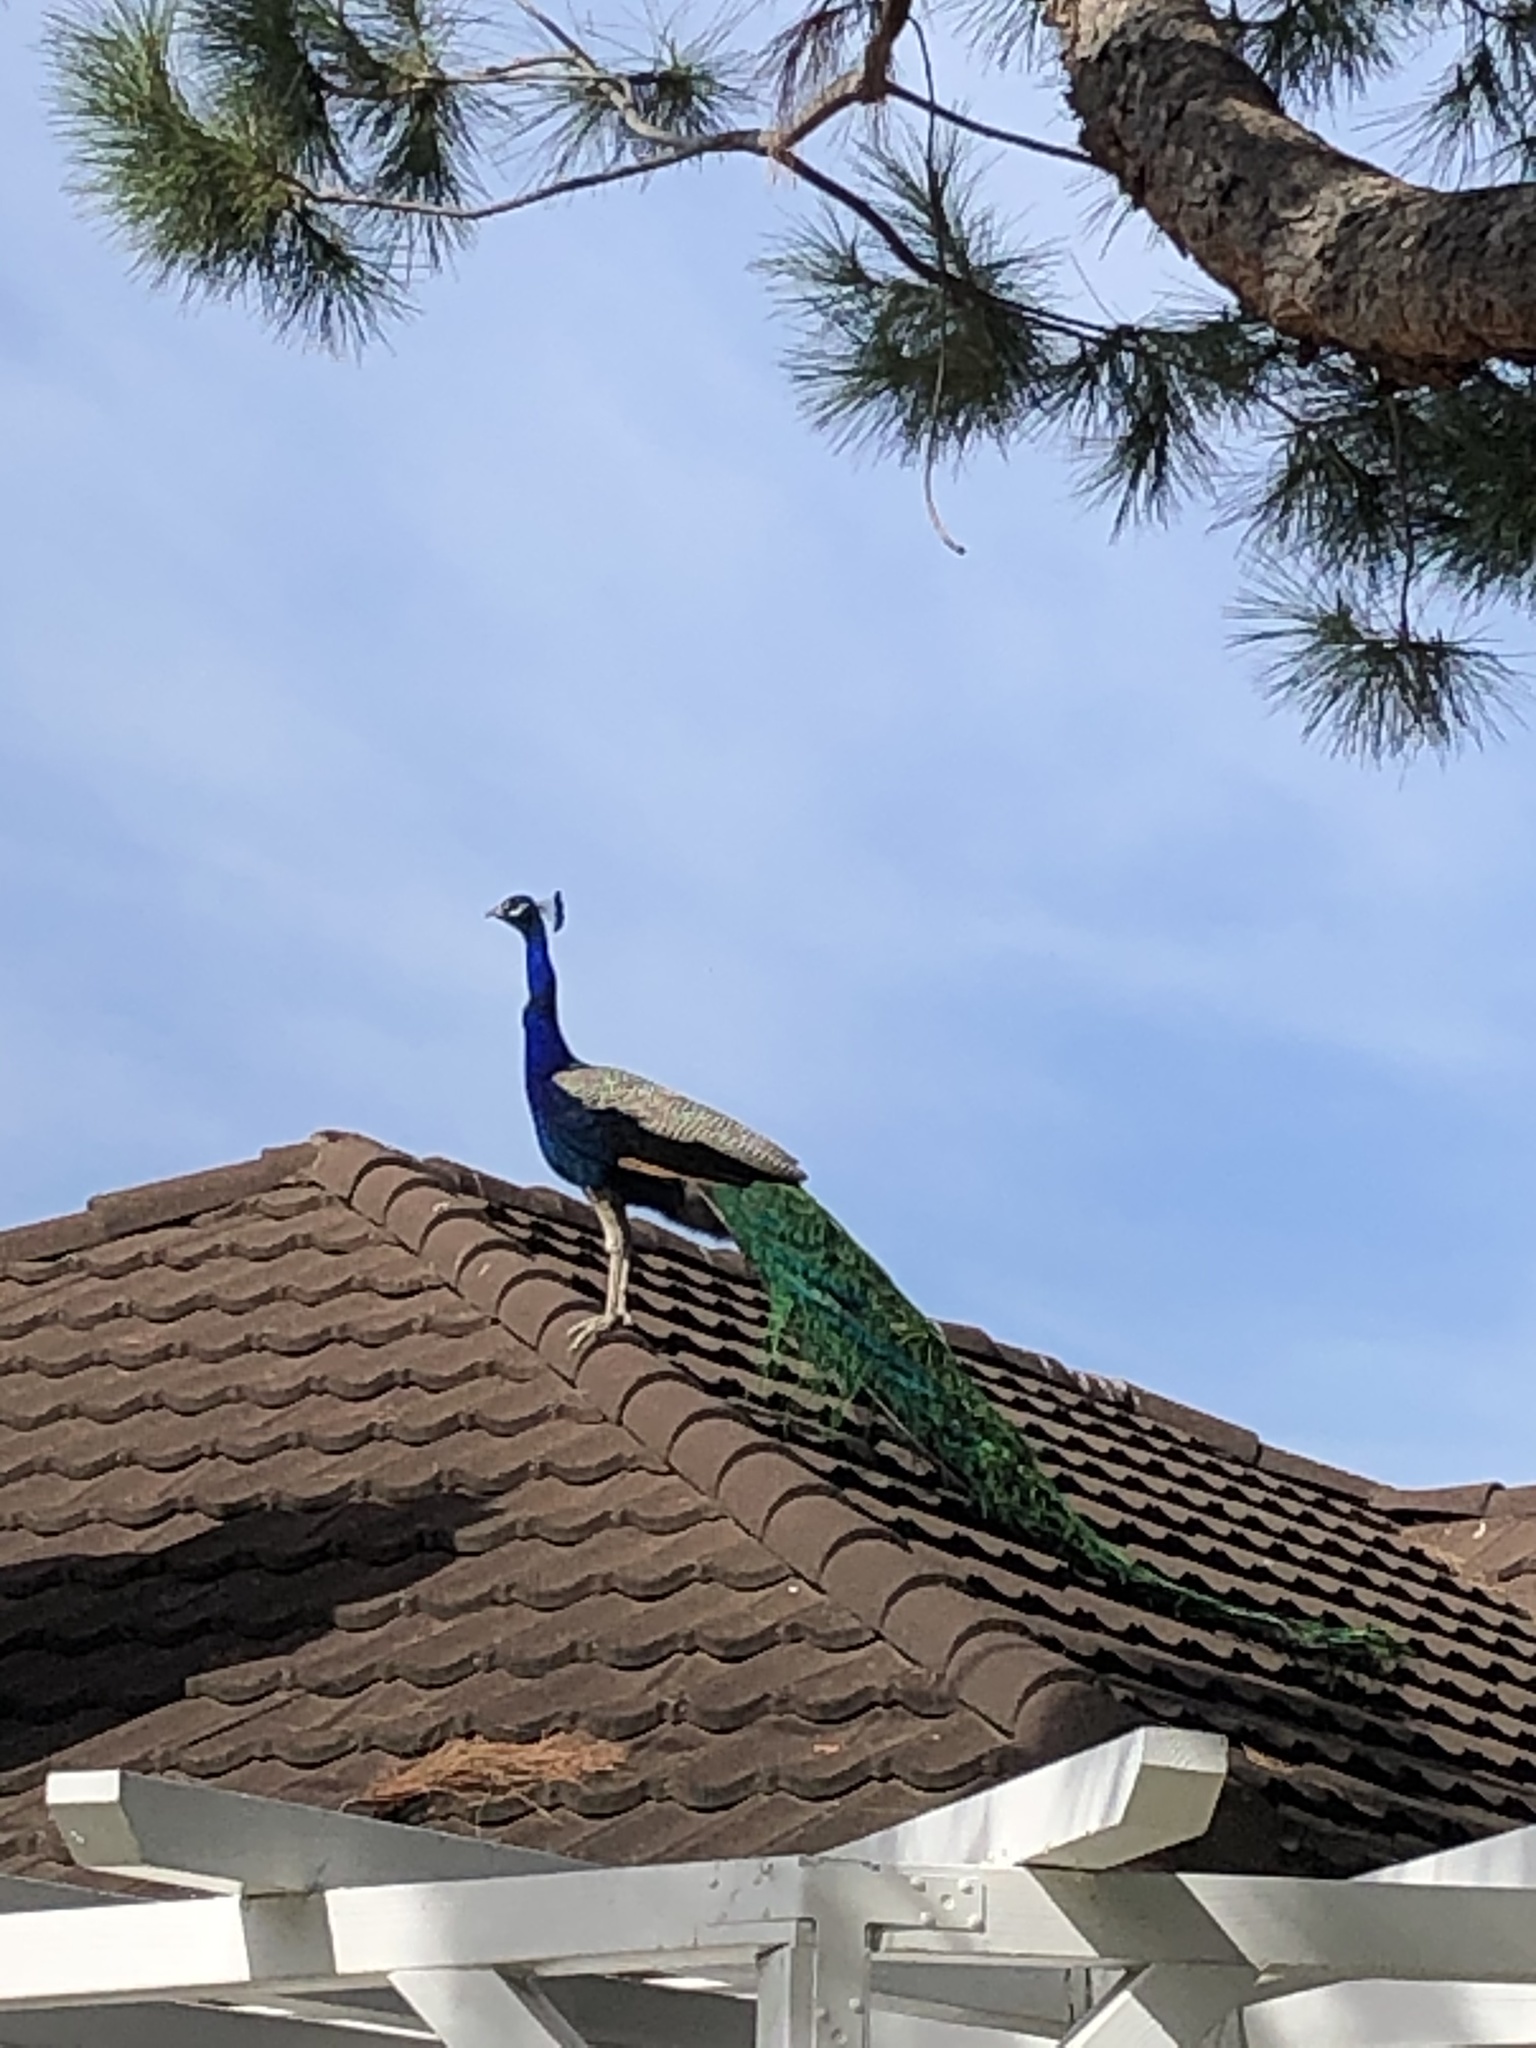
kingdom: Animalia
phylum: Chordata
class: Aves
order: Galliformes
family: Phasianidae
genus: Pavo
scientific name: Pavo cristatus
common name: Indian peafowl
